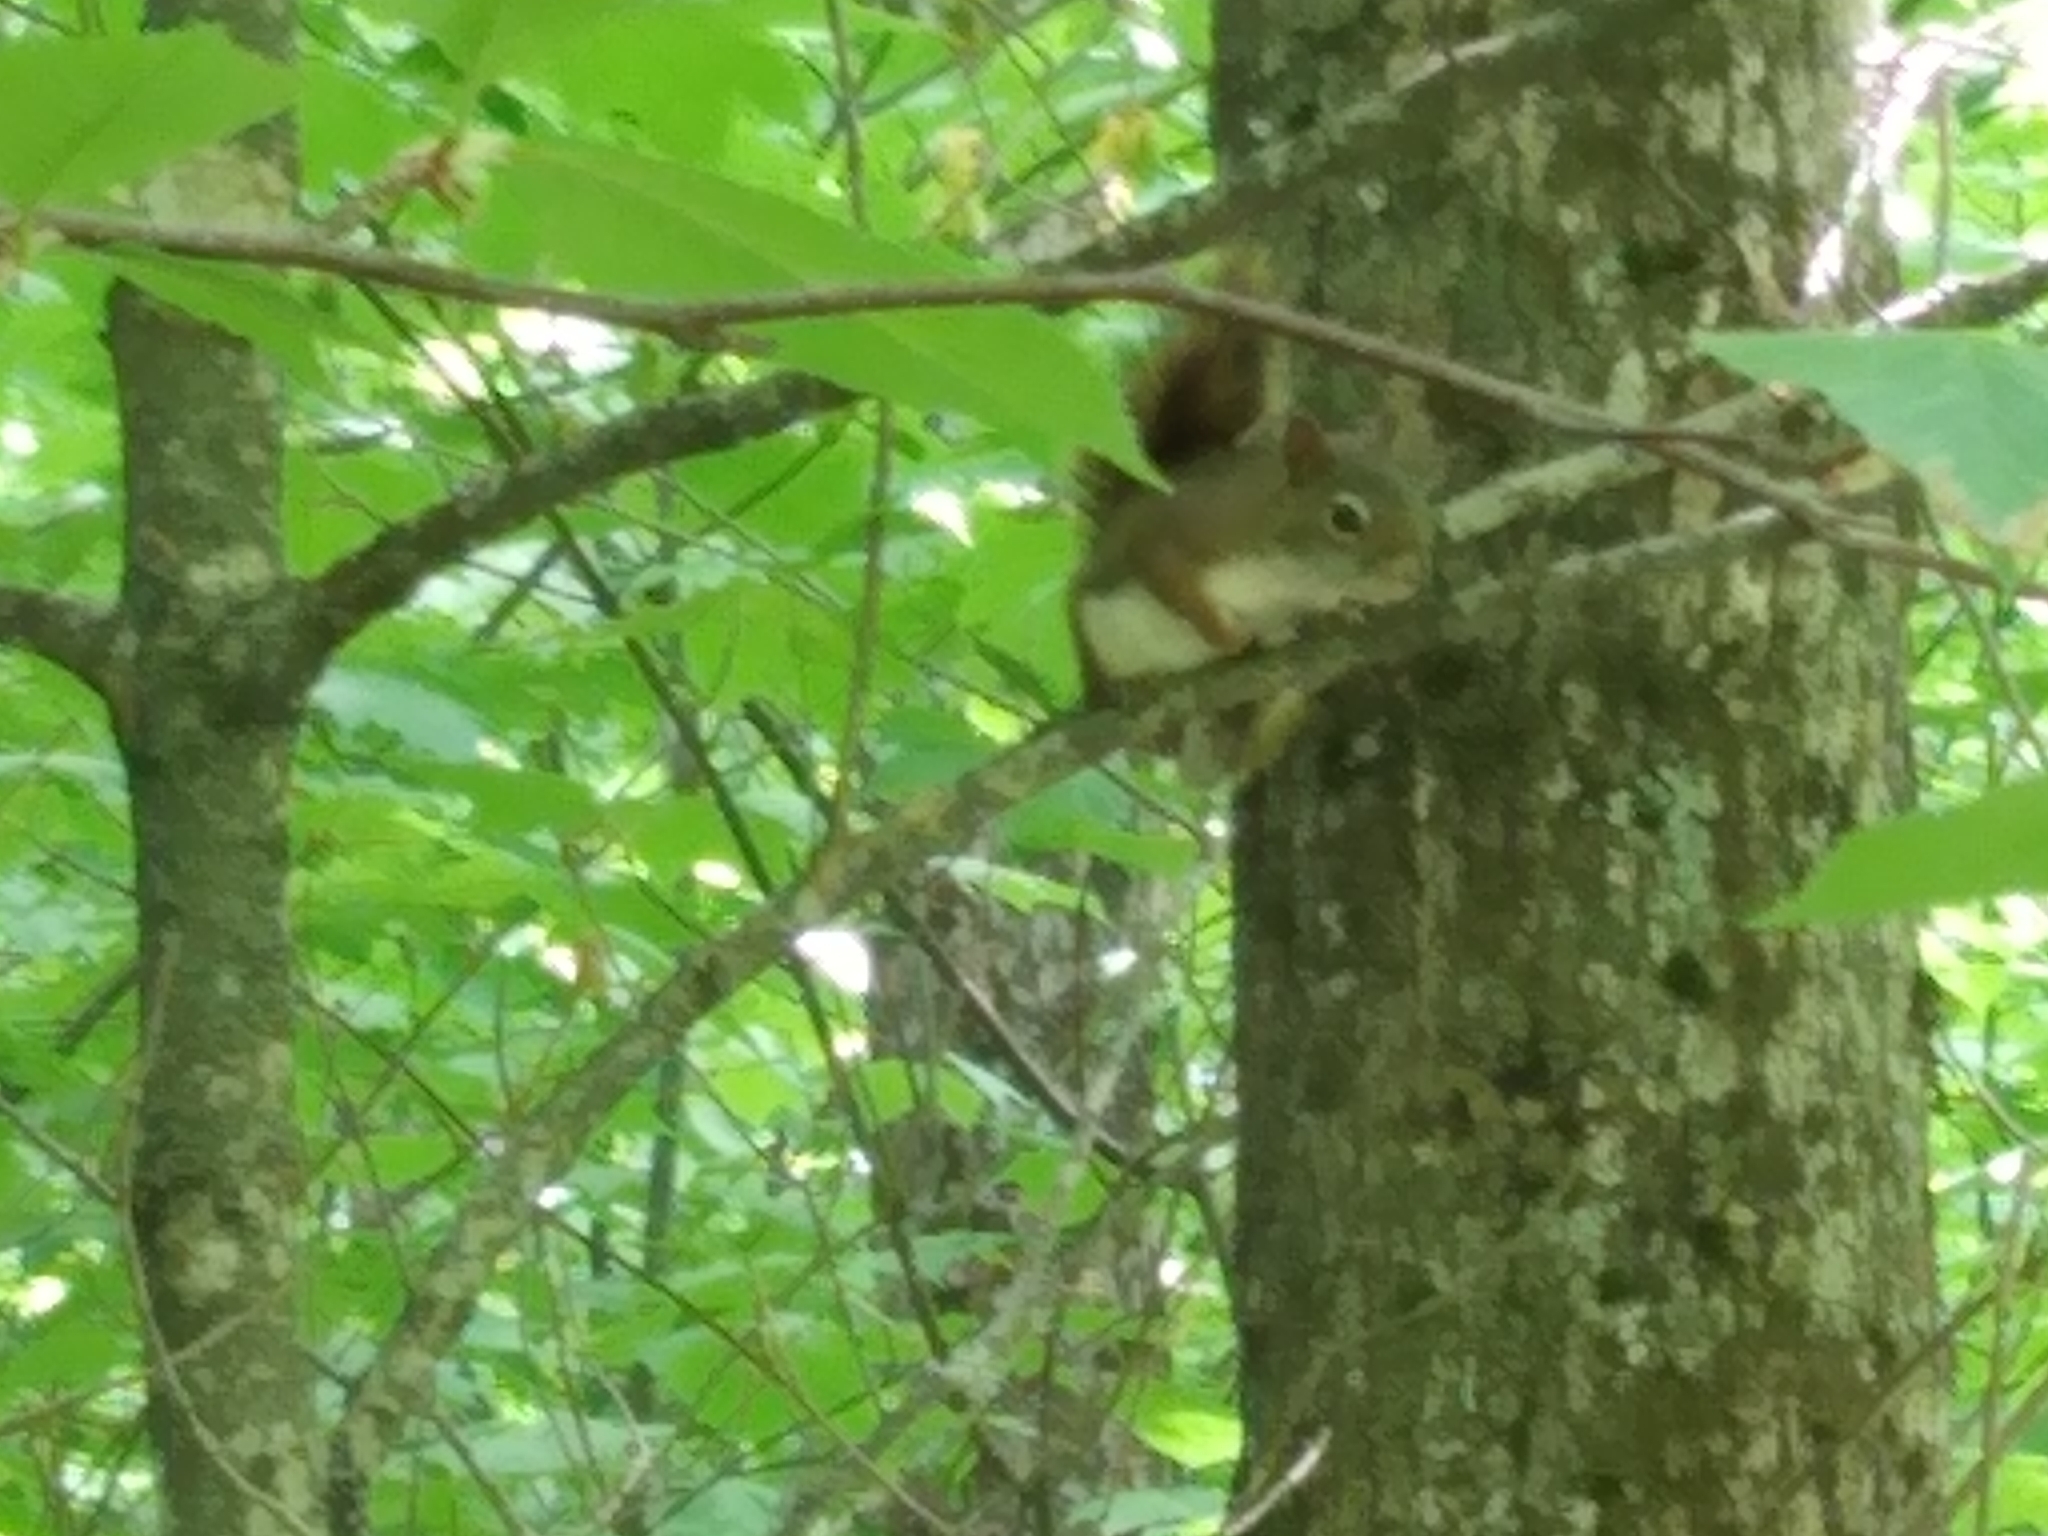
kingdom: Animalia
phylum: Chordata
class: Mammalia
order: Rodentia
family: Sciuridae
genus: Tamiasciurus
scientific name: Tamiasciurus hudsonicus
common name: Red squirrel
